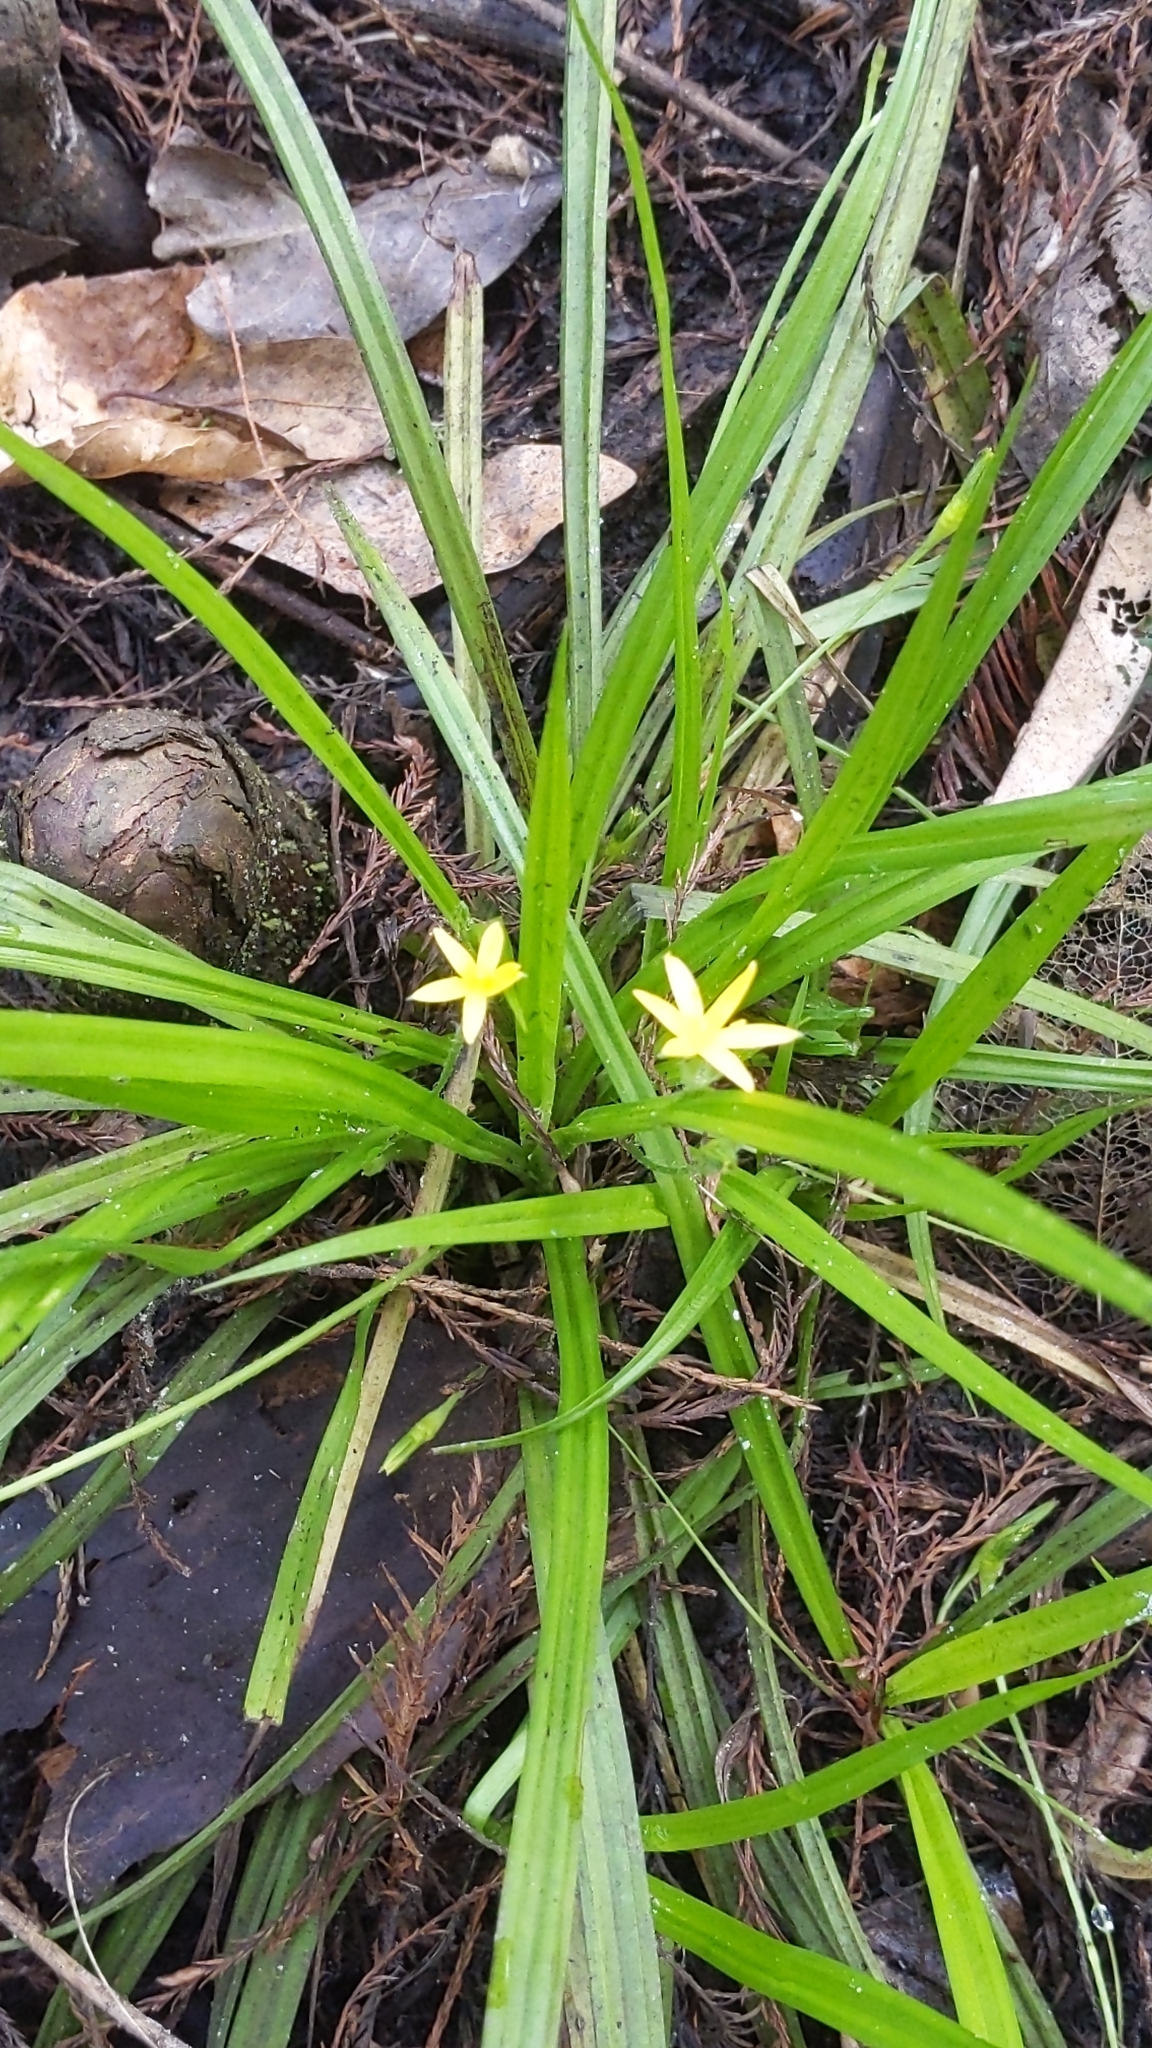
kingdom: Plantae
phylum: Tracheophyta
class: Liliopsida
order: Asparagales
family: Hypoxidaceae
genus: Hypoxis
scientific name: Hypoxis curtissii
